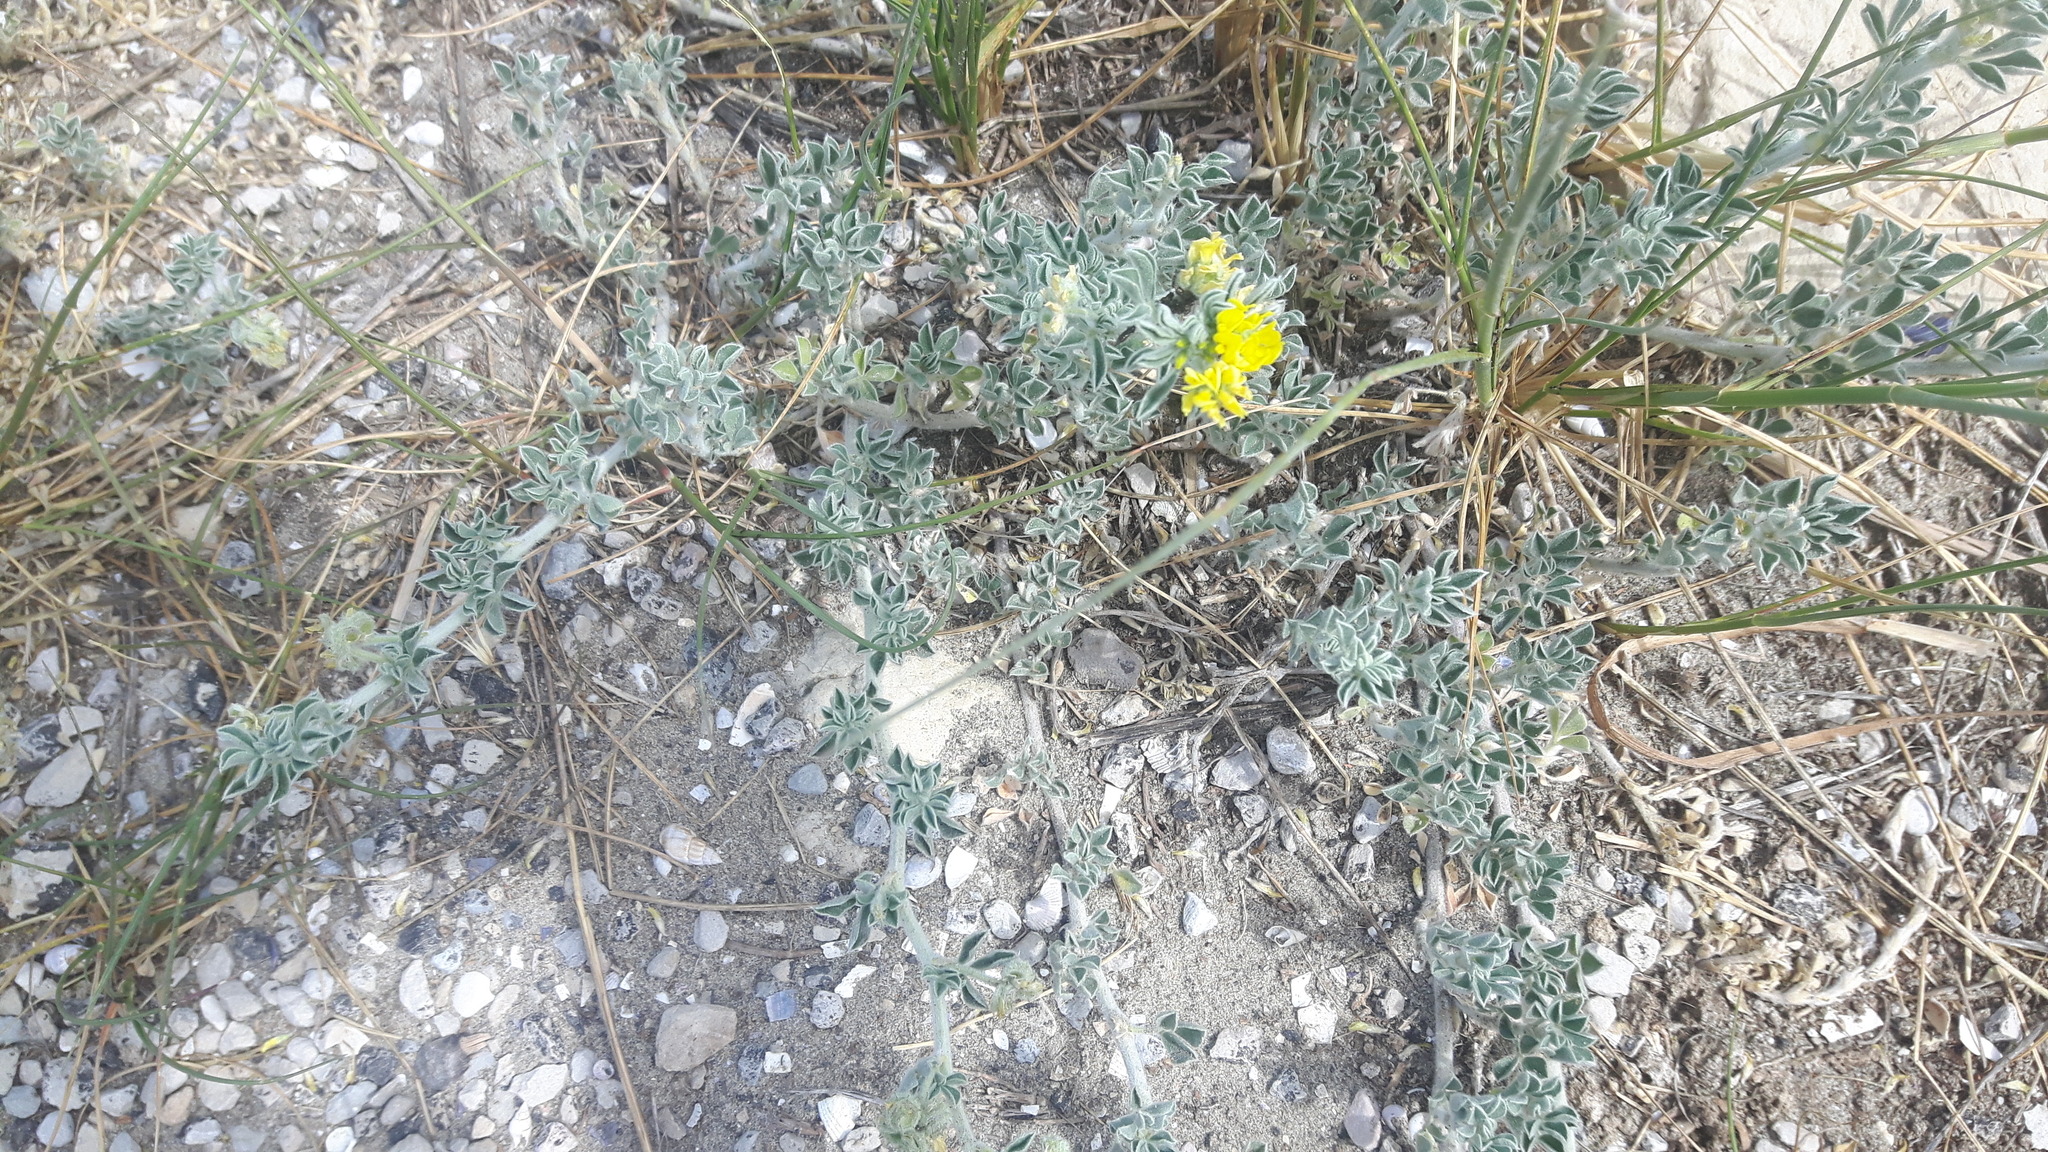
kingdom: Plantae
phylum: Tracheophyta
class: Magnoliopsida
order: Fabales
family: Fabaceae
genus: Medicago
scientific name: Medicago marina
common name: Sea medick
